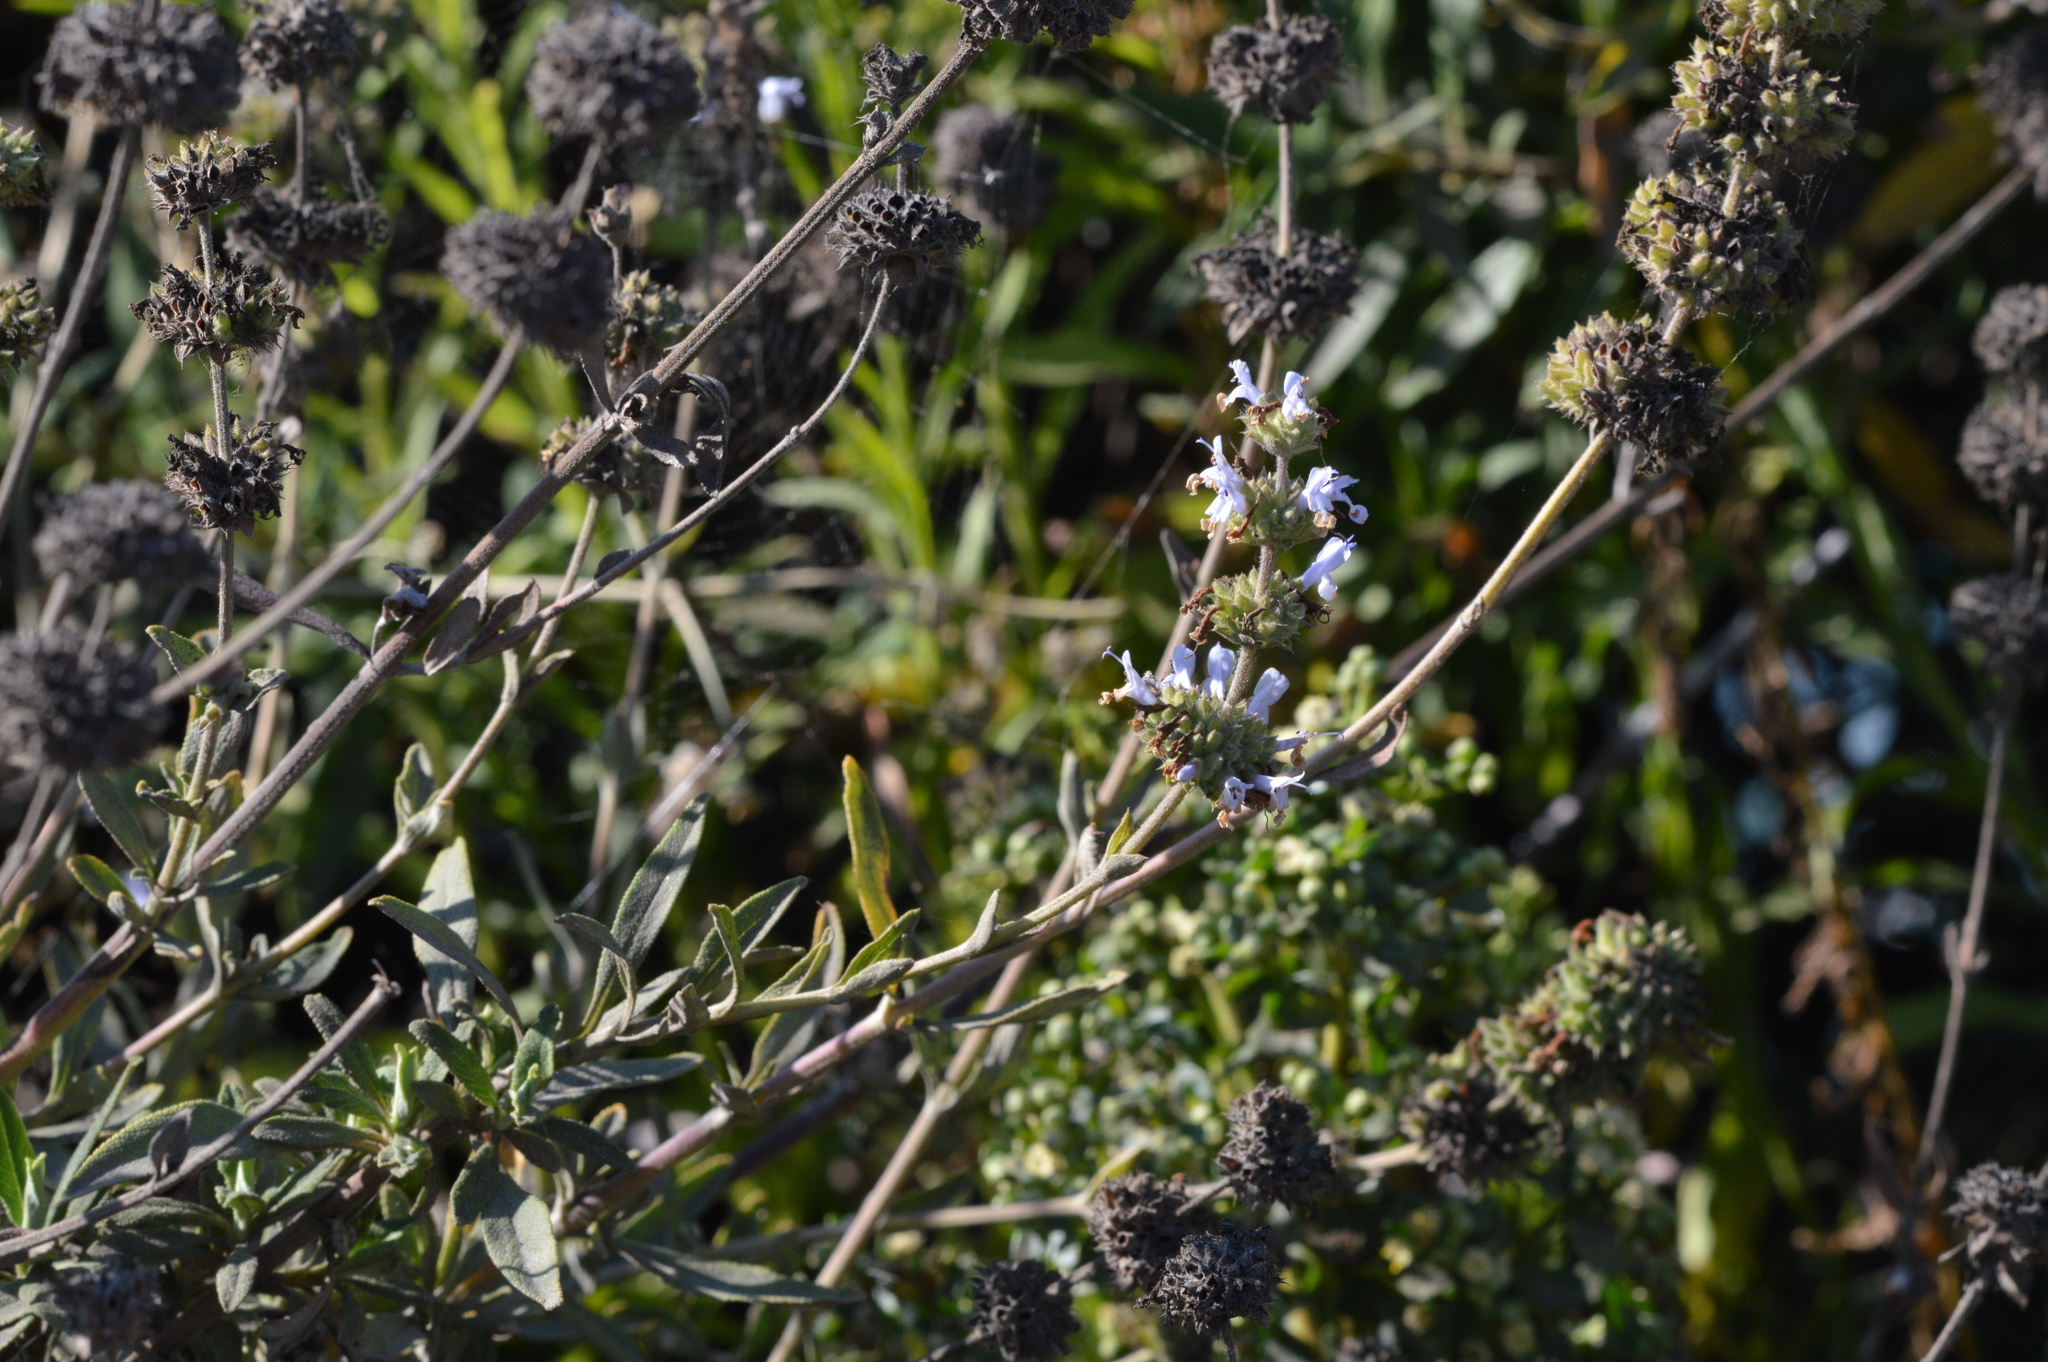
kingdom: Plantae
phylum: Tracheophyta
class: Magnoliopsida
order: Lamiales
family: Lamiaceae
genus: Salvia
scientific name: Salvia mellifera
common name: Black sage
